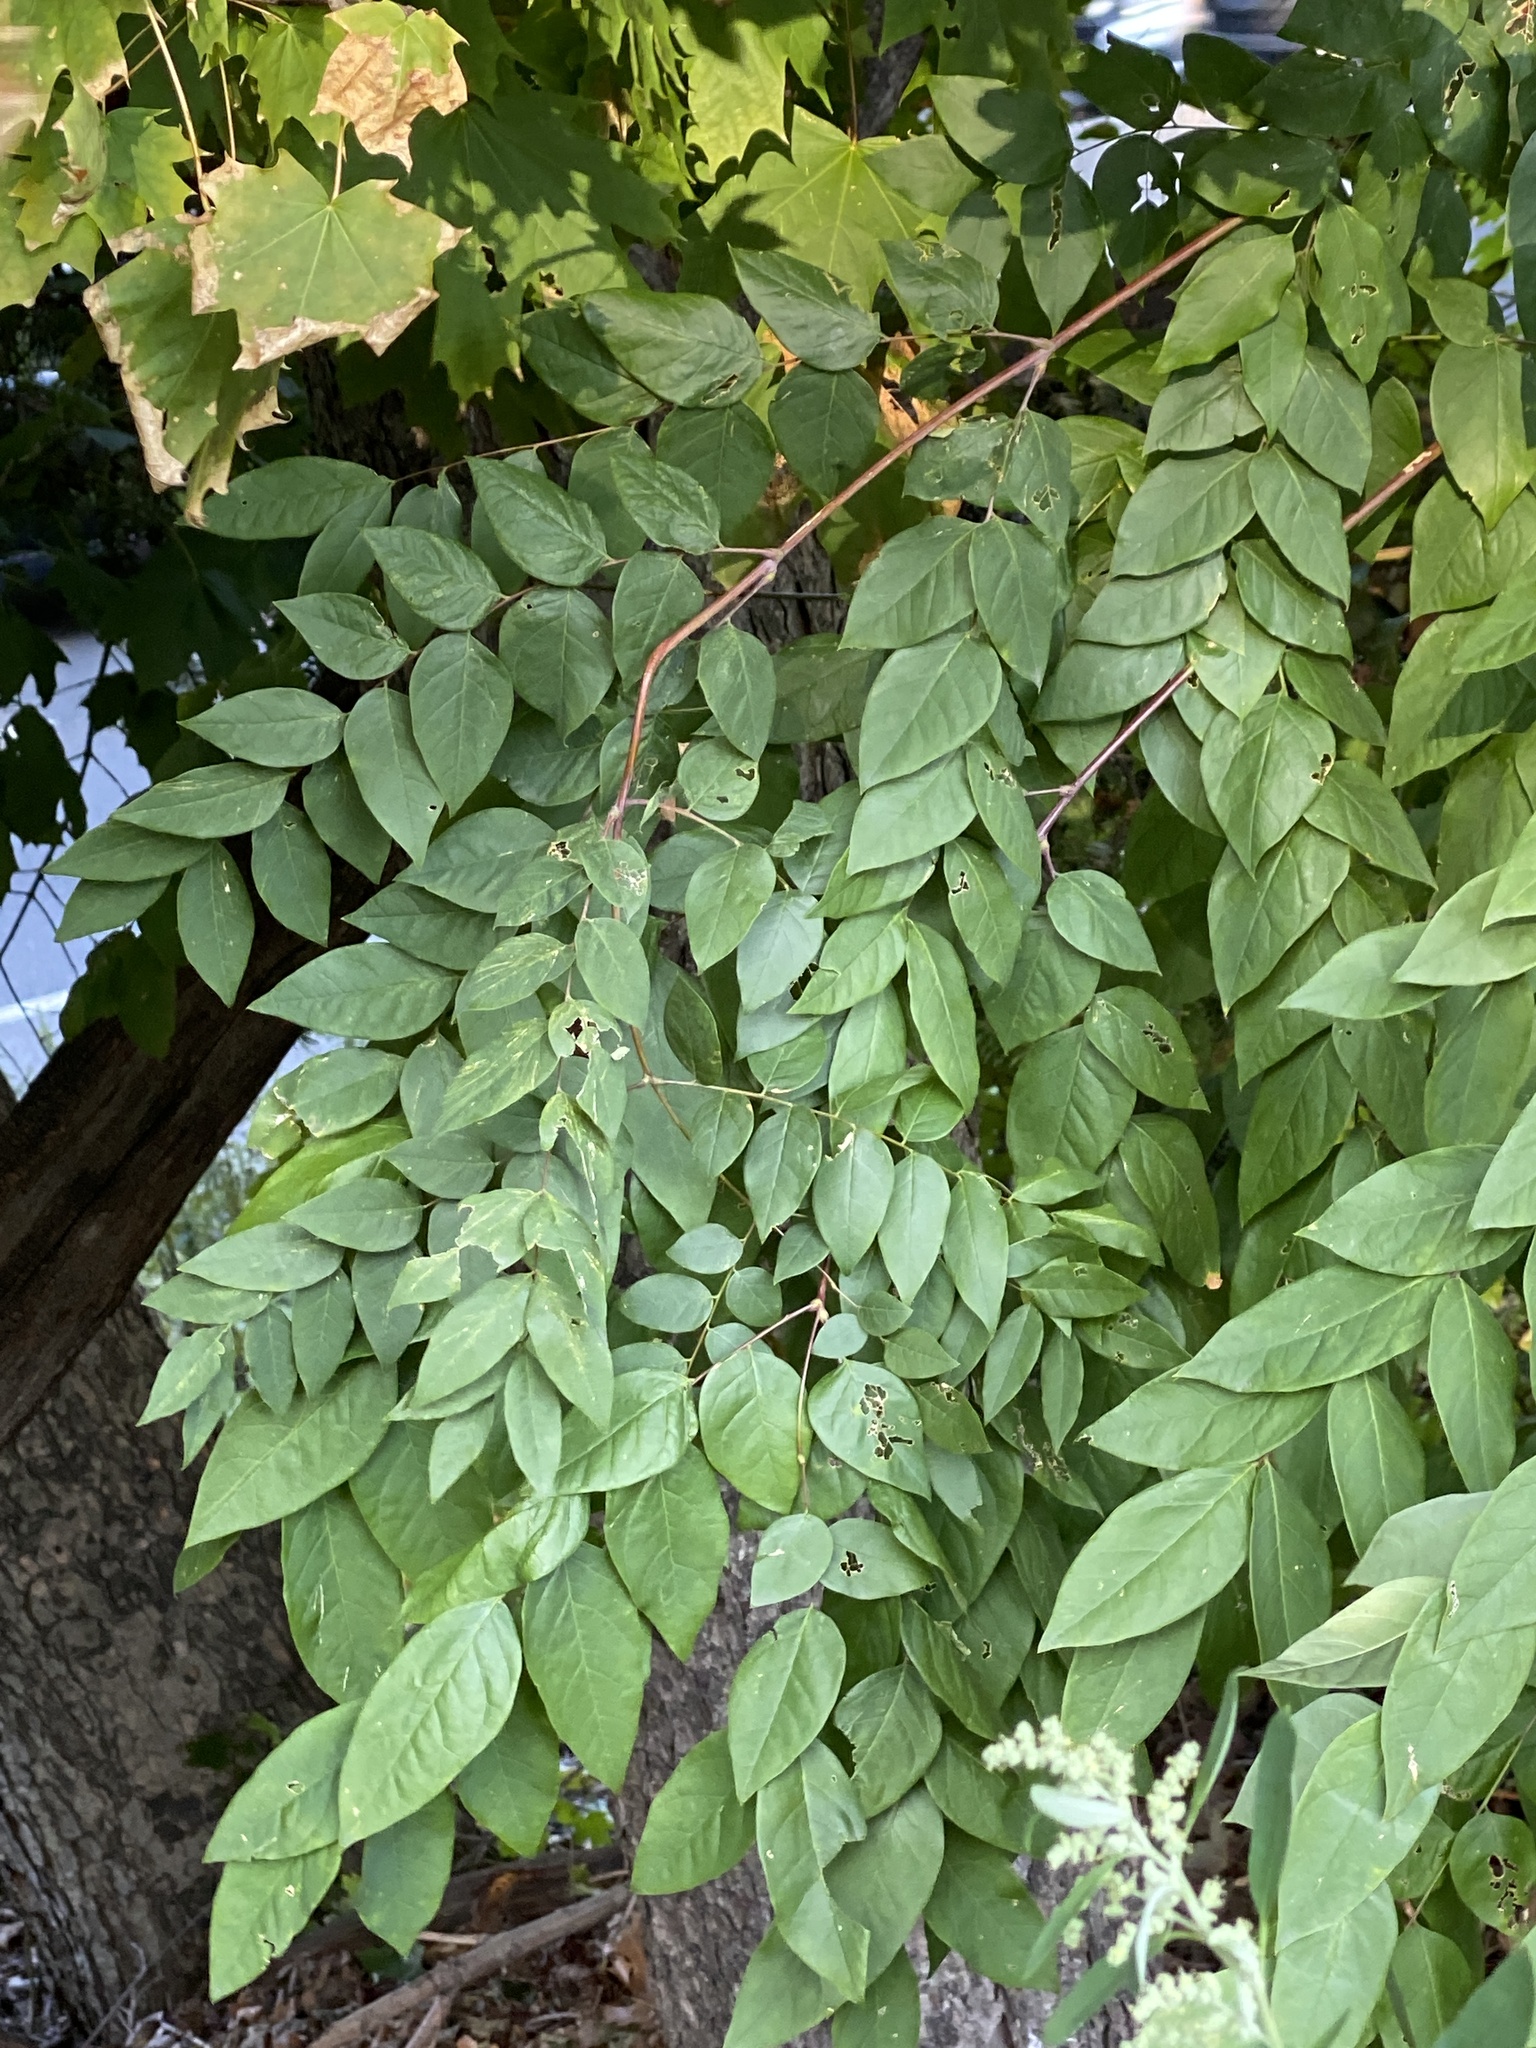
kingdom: Plantae
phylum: Tracheophyta
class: Magnoliopsida
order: Fabales
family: Fabaceae
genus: Gymnocladus
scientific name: Gymnocladus dioicus
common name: Kentucky coffee-tree
